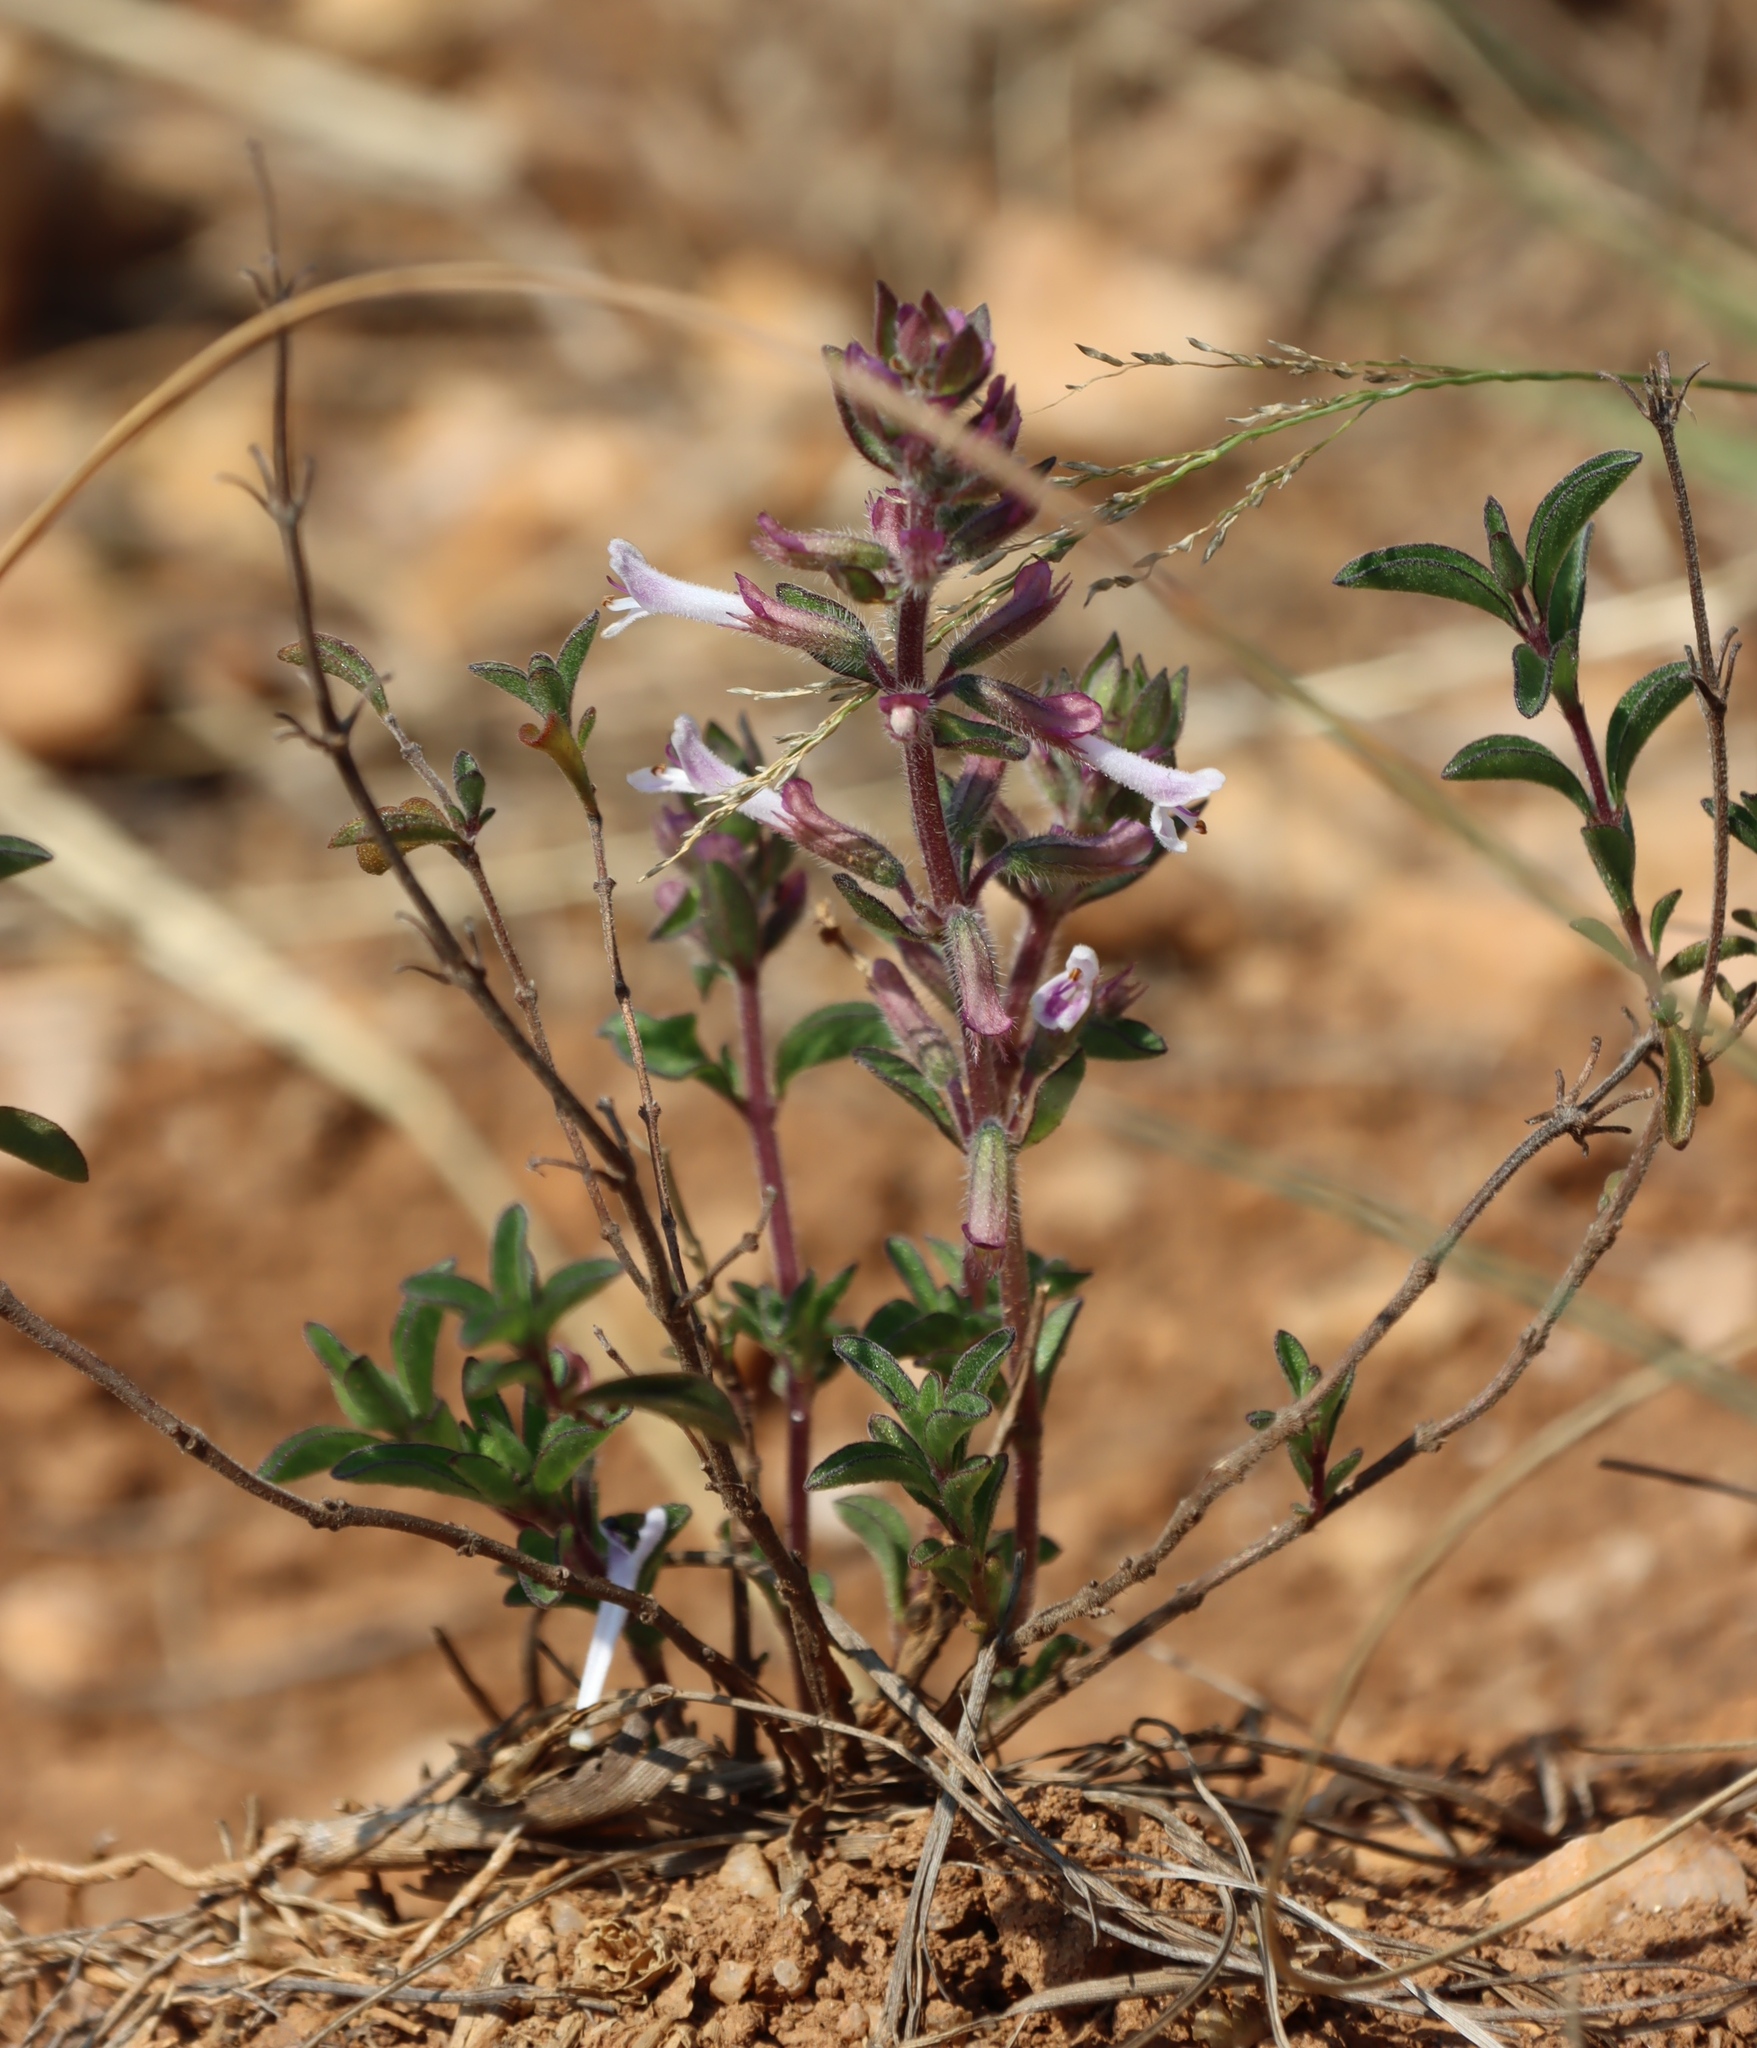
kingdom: Plantae
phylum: Tracheophyta
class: Magnoliopsida
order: Lamiales
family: Lamiaceae
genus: Syncolostemon
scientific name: Syncolostemon pretoriae
